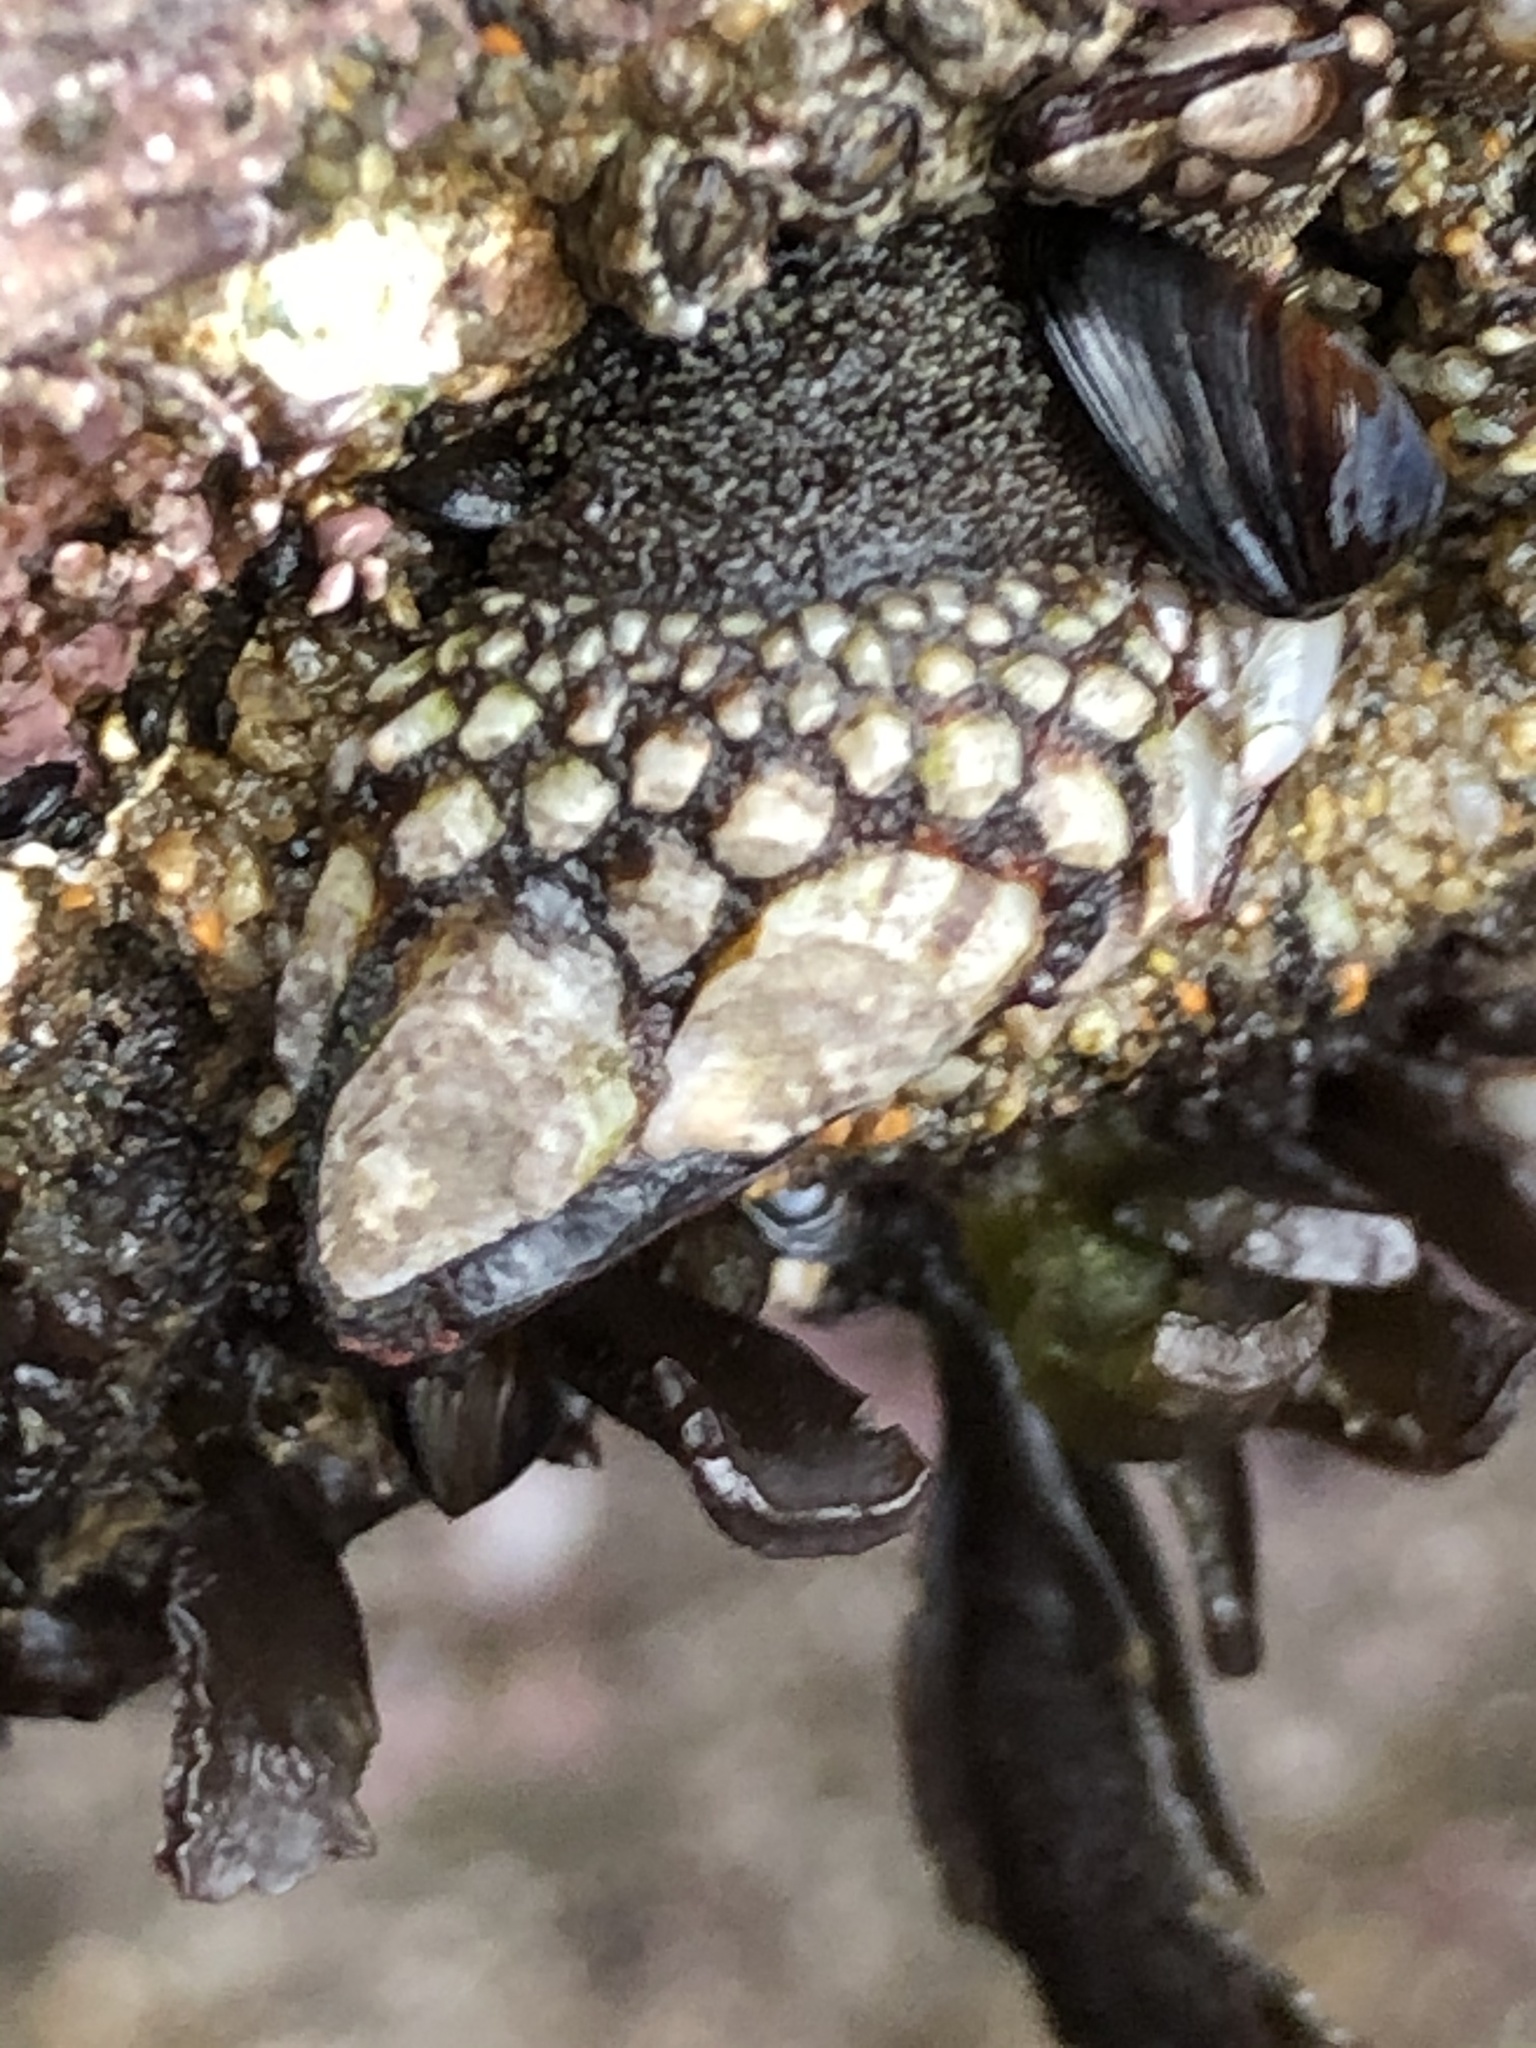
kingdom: Animalia
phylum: Arthropoda
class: Maxillopoda
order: Pedunculata
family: Pollicipedidae
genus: Pollicipes
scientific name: Pollicipes polymerus
